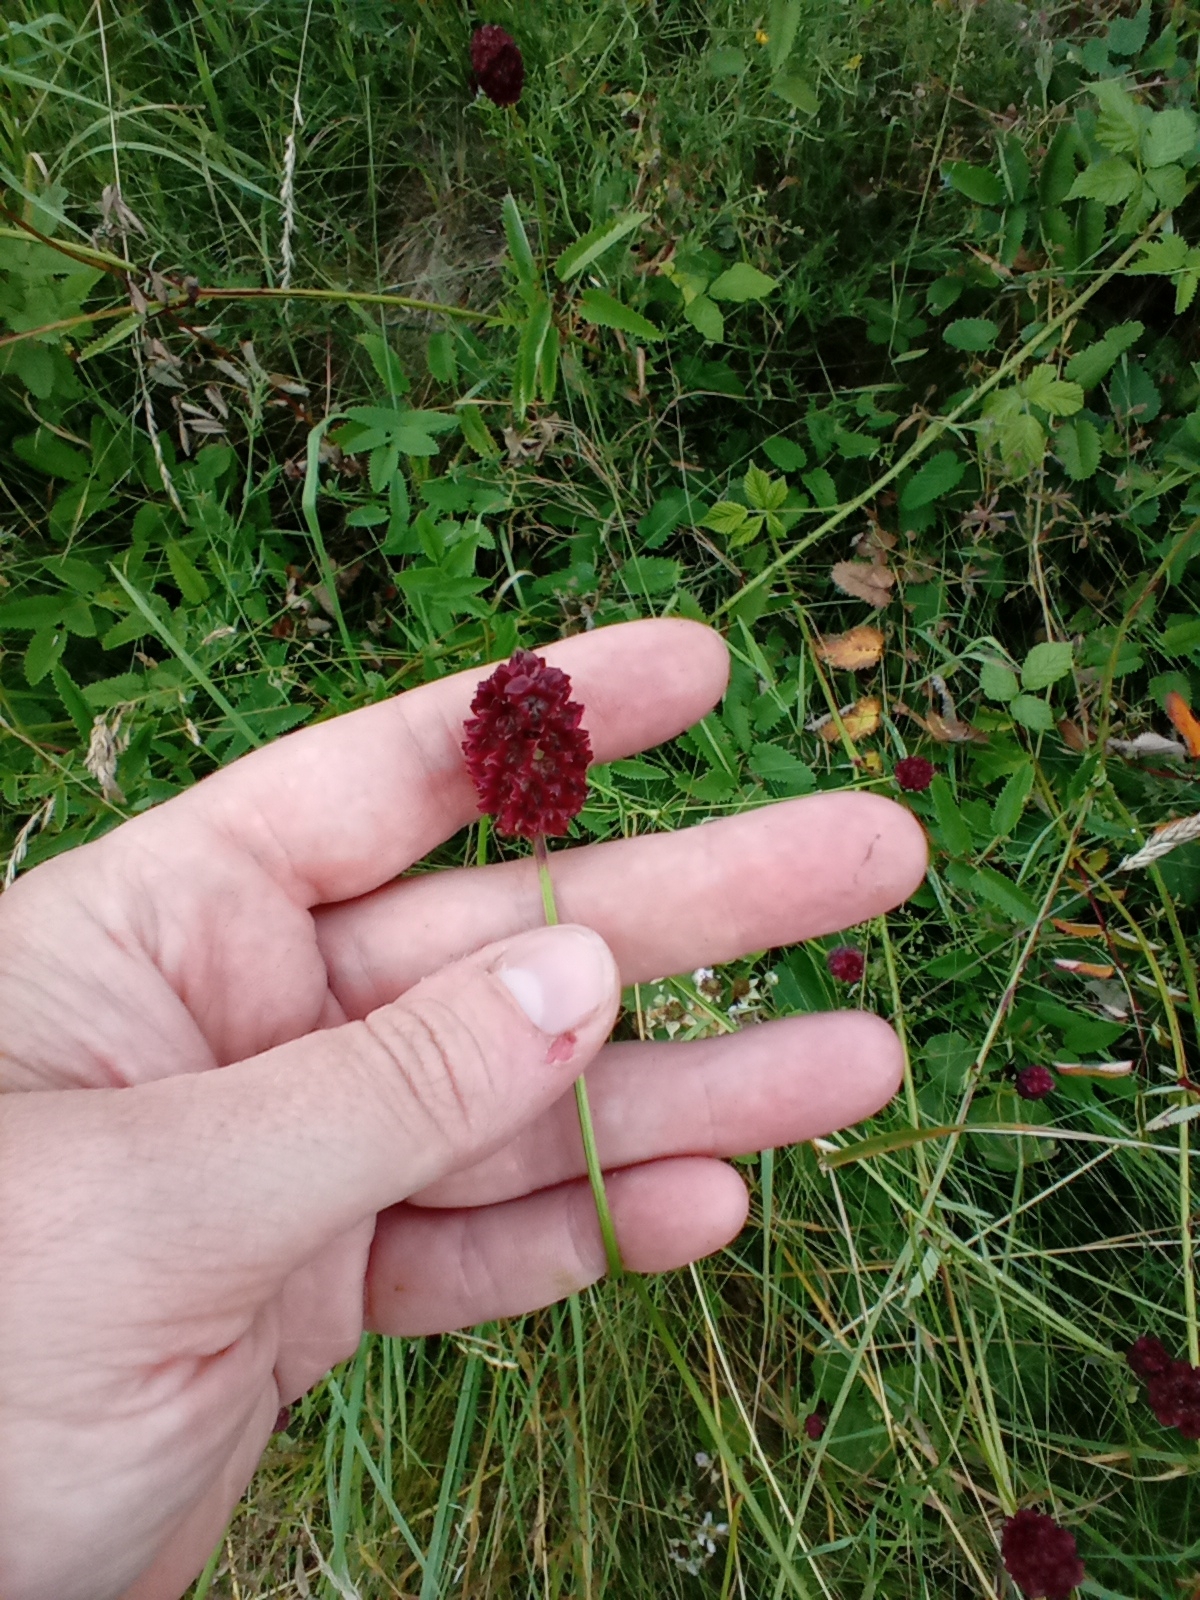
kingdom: Plantae
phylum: Tracheophyta
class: Magnoliopsida
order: Rosales
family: Rosaceae
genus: Sanguisorba
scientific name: Sanguisorba officinalis
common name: Great burnet
